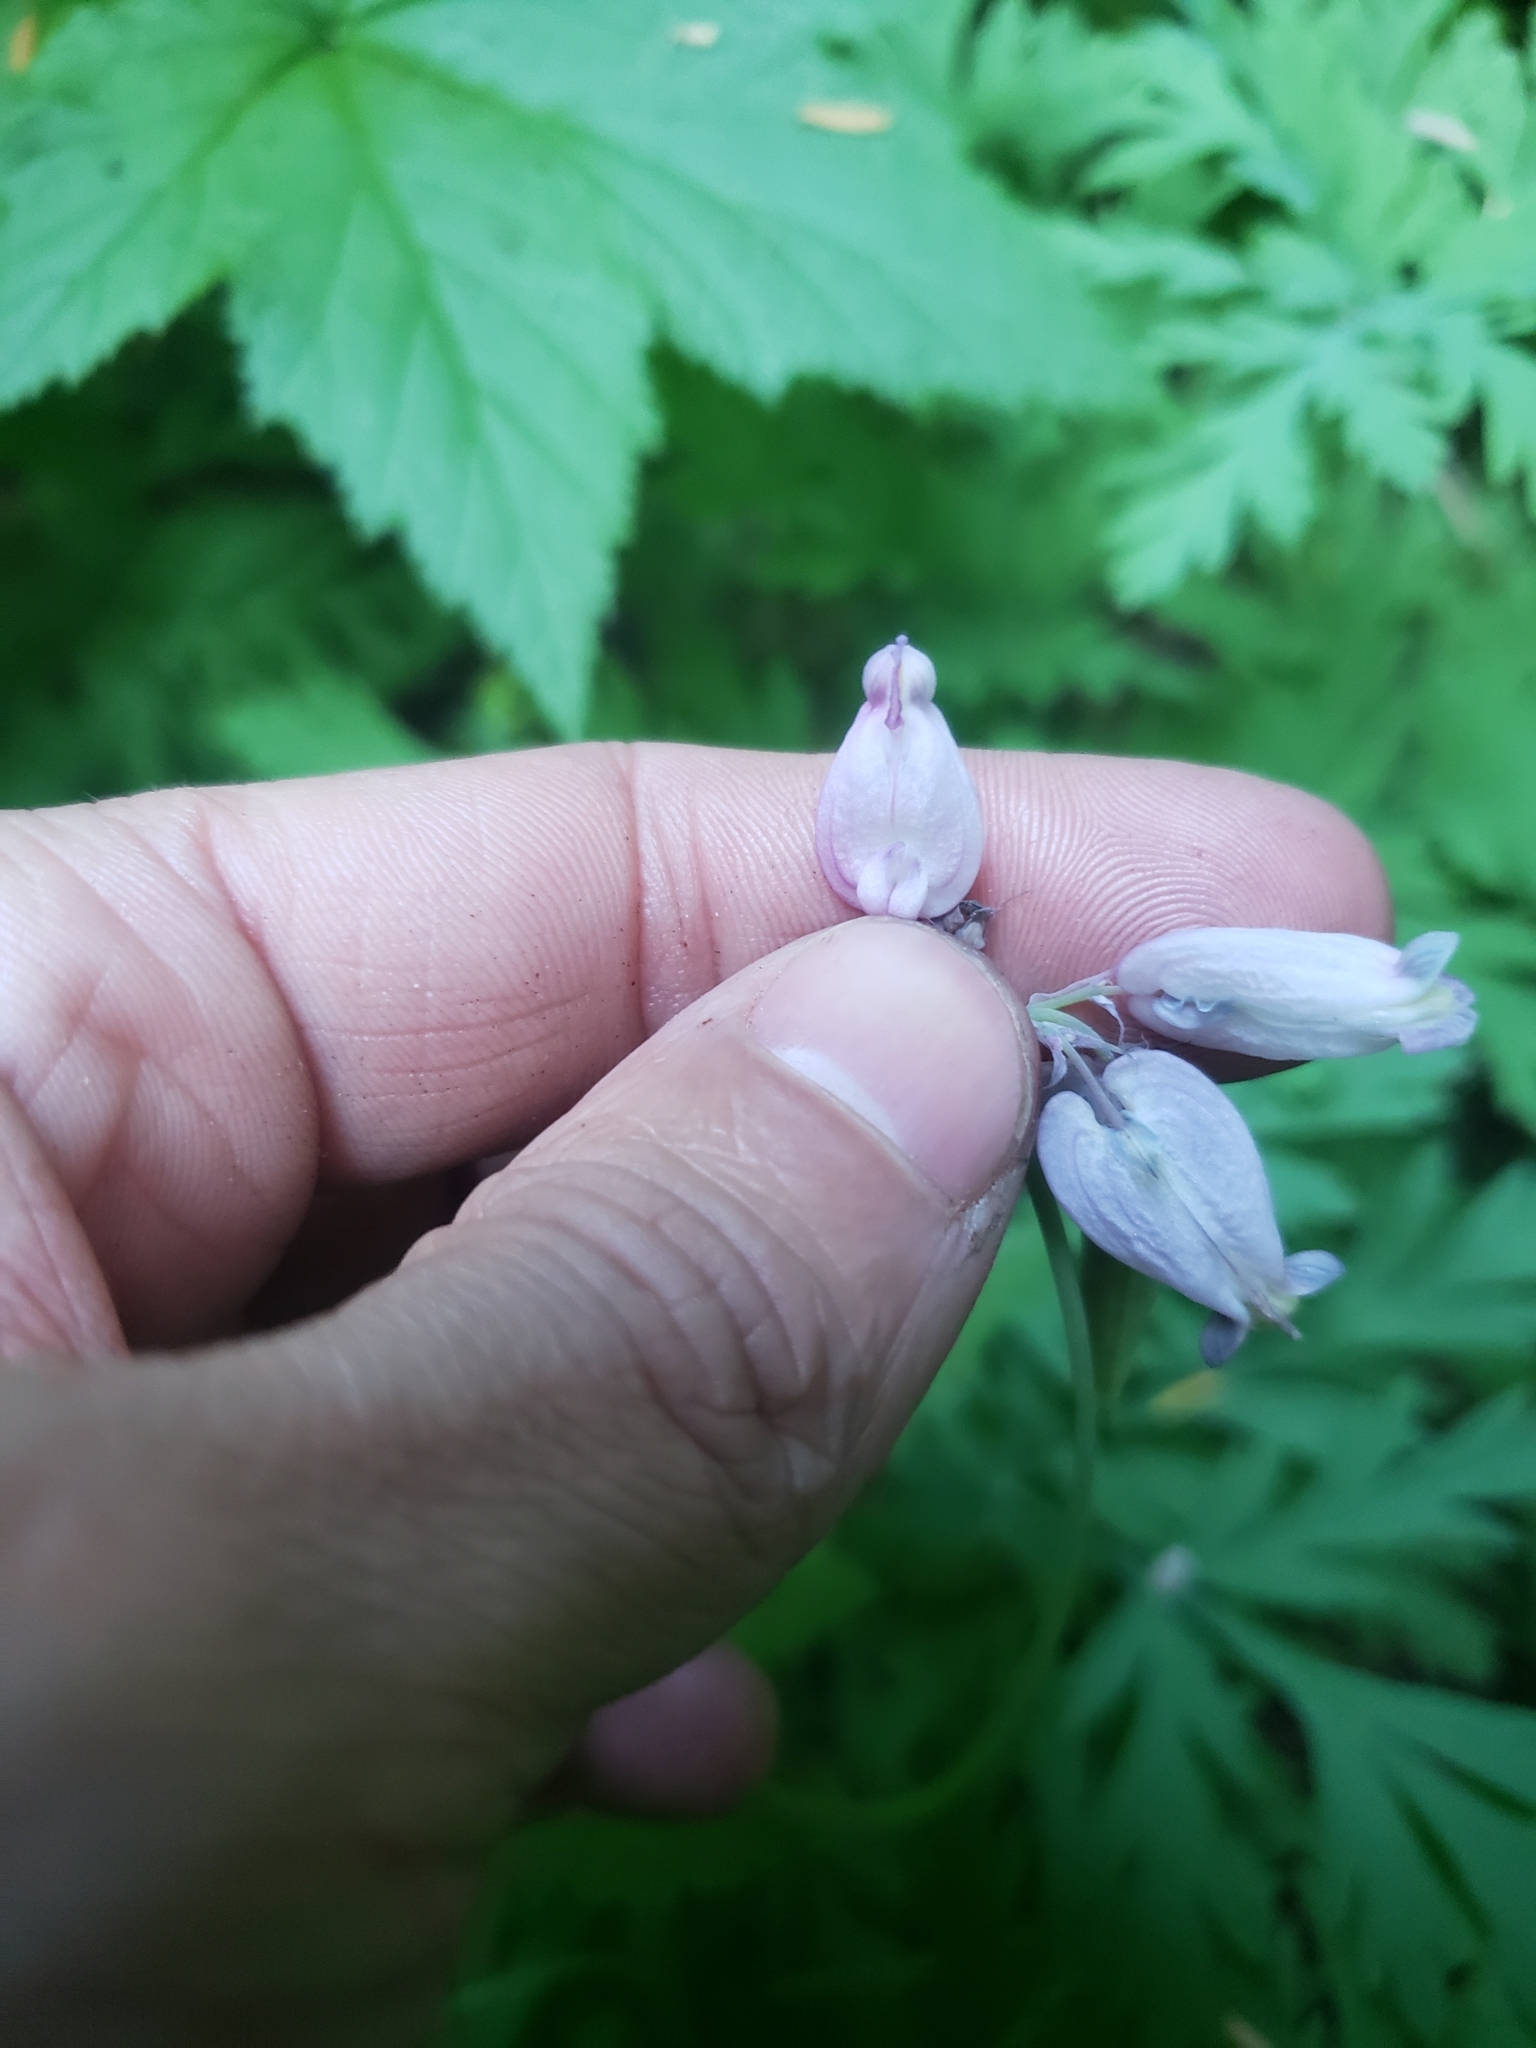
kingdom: Plantae
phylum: Tracheophyta
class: Magnoliopsida
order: Ranunculales
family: Papaveraceae
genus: Dicentra
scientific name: Dicentra formosa
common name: Bleeding-heart
